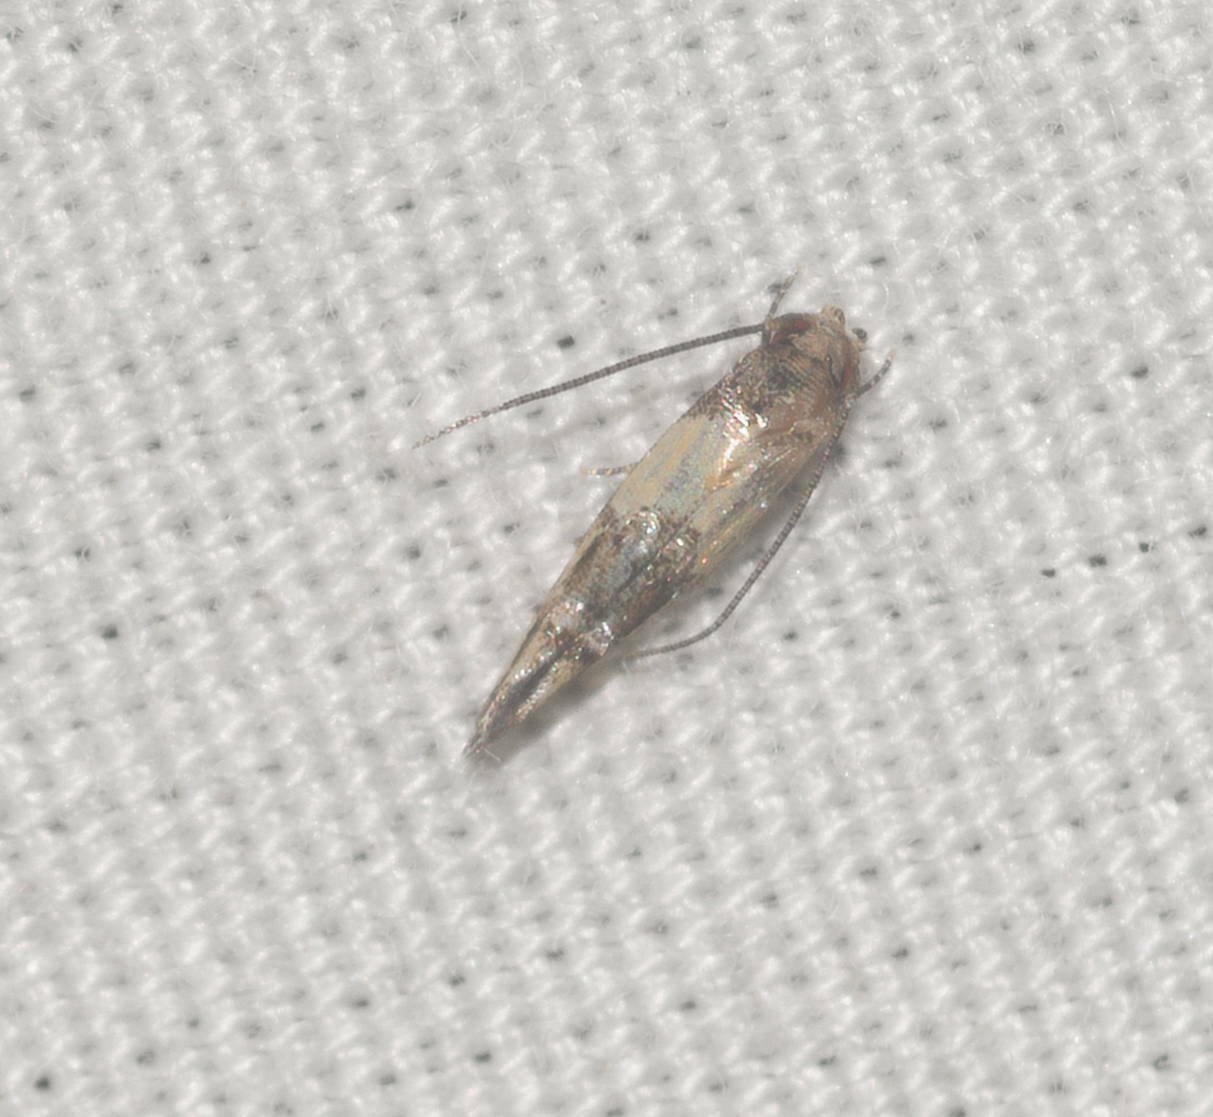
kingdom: Animalia
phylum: Arthropoda
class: Insecta
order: Lepidoptera
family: Momphidae
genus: Mompha
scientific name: Mompha trithalama
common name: Moth
